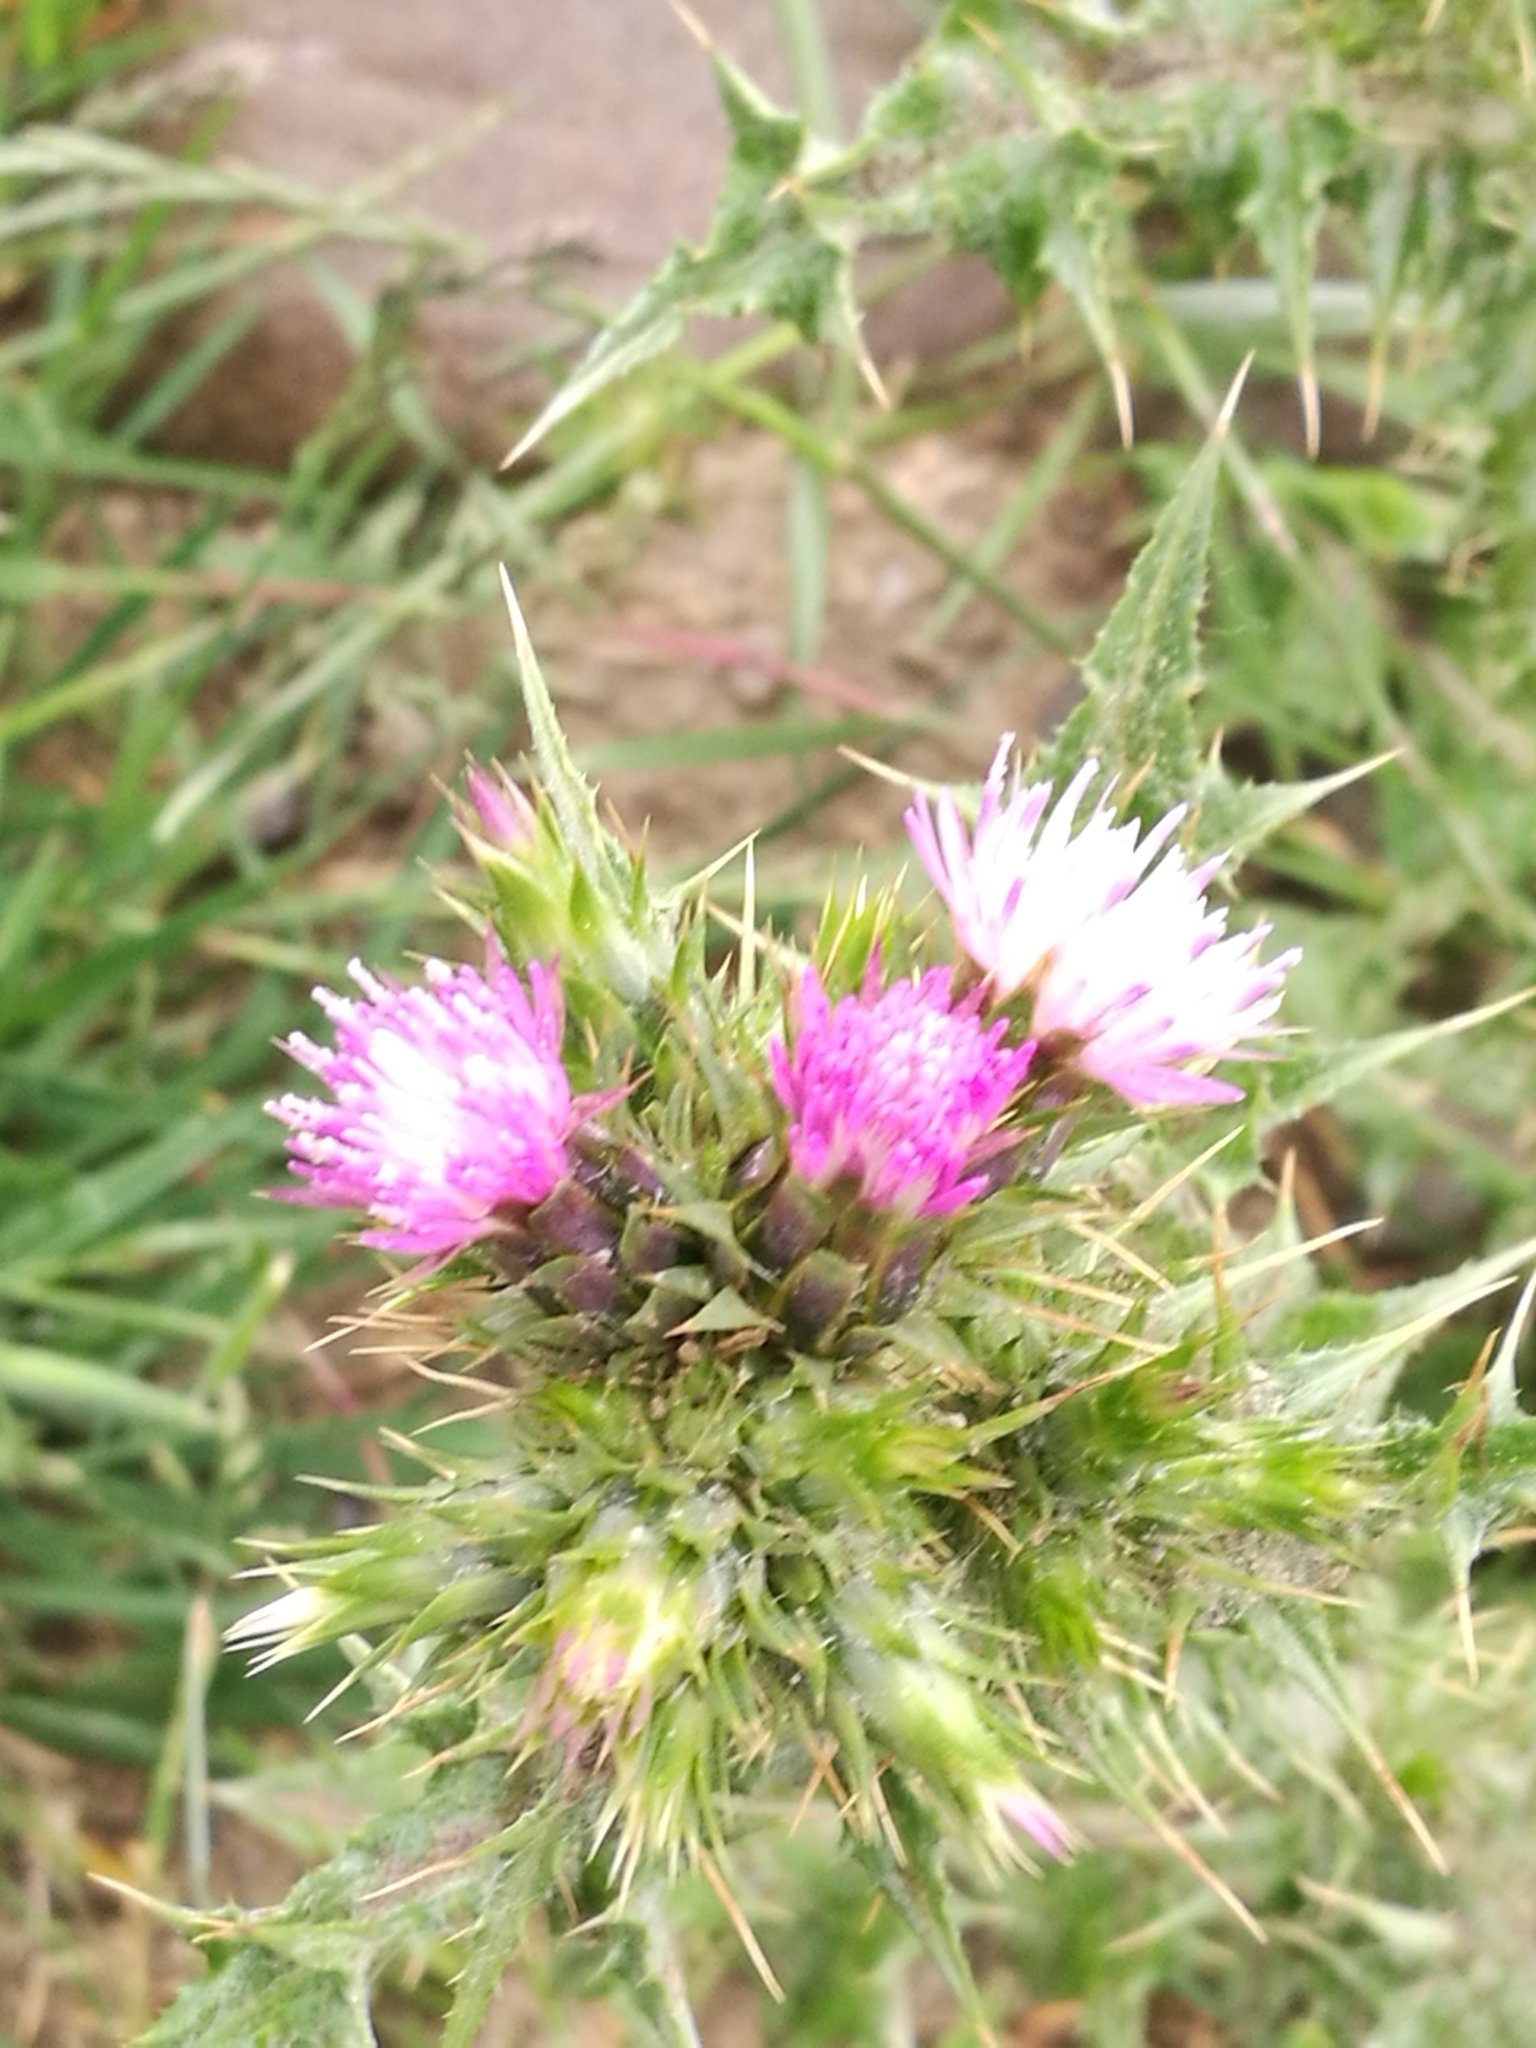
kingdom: Plantae
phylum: Tracheophyta
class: Magnoliopsida
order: Asterales
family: Asteraceae
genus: Carduus
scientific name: Carduus tenuiflorus
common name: Slender thistle
